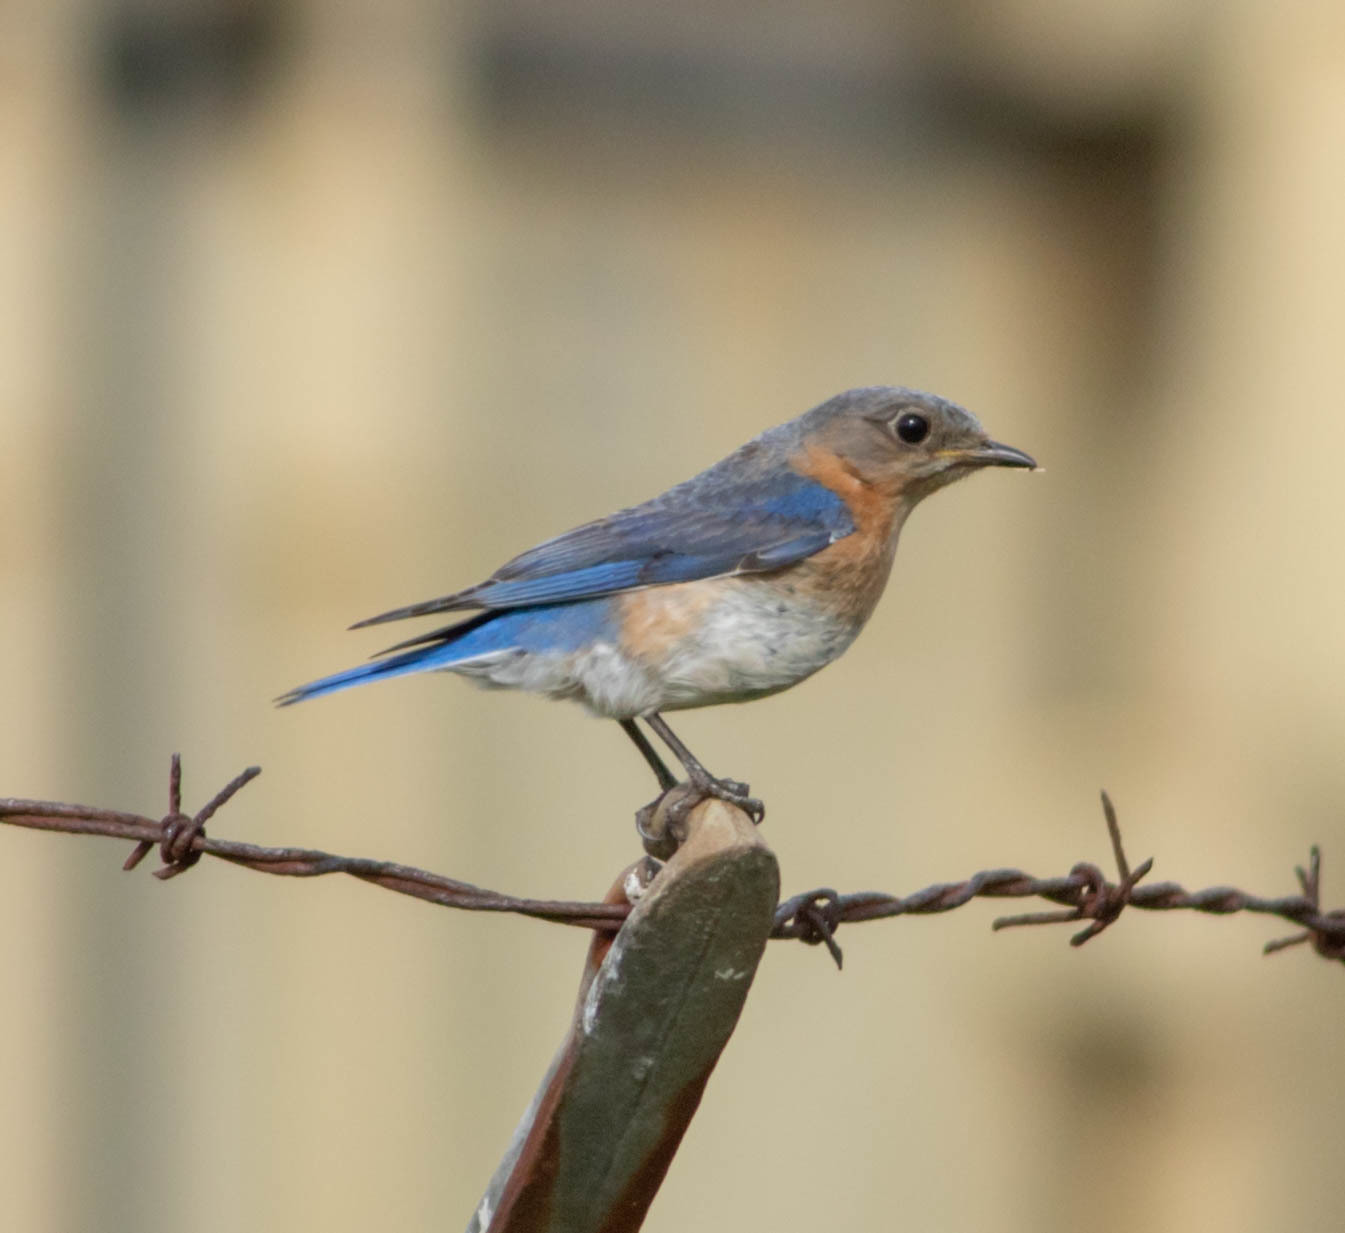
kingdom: Animalia
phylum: Chordata
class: Aves
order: Passeriformes
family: Turdidae
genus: Sialia
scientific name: Sialia sialis
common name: Eastern bluebird
